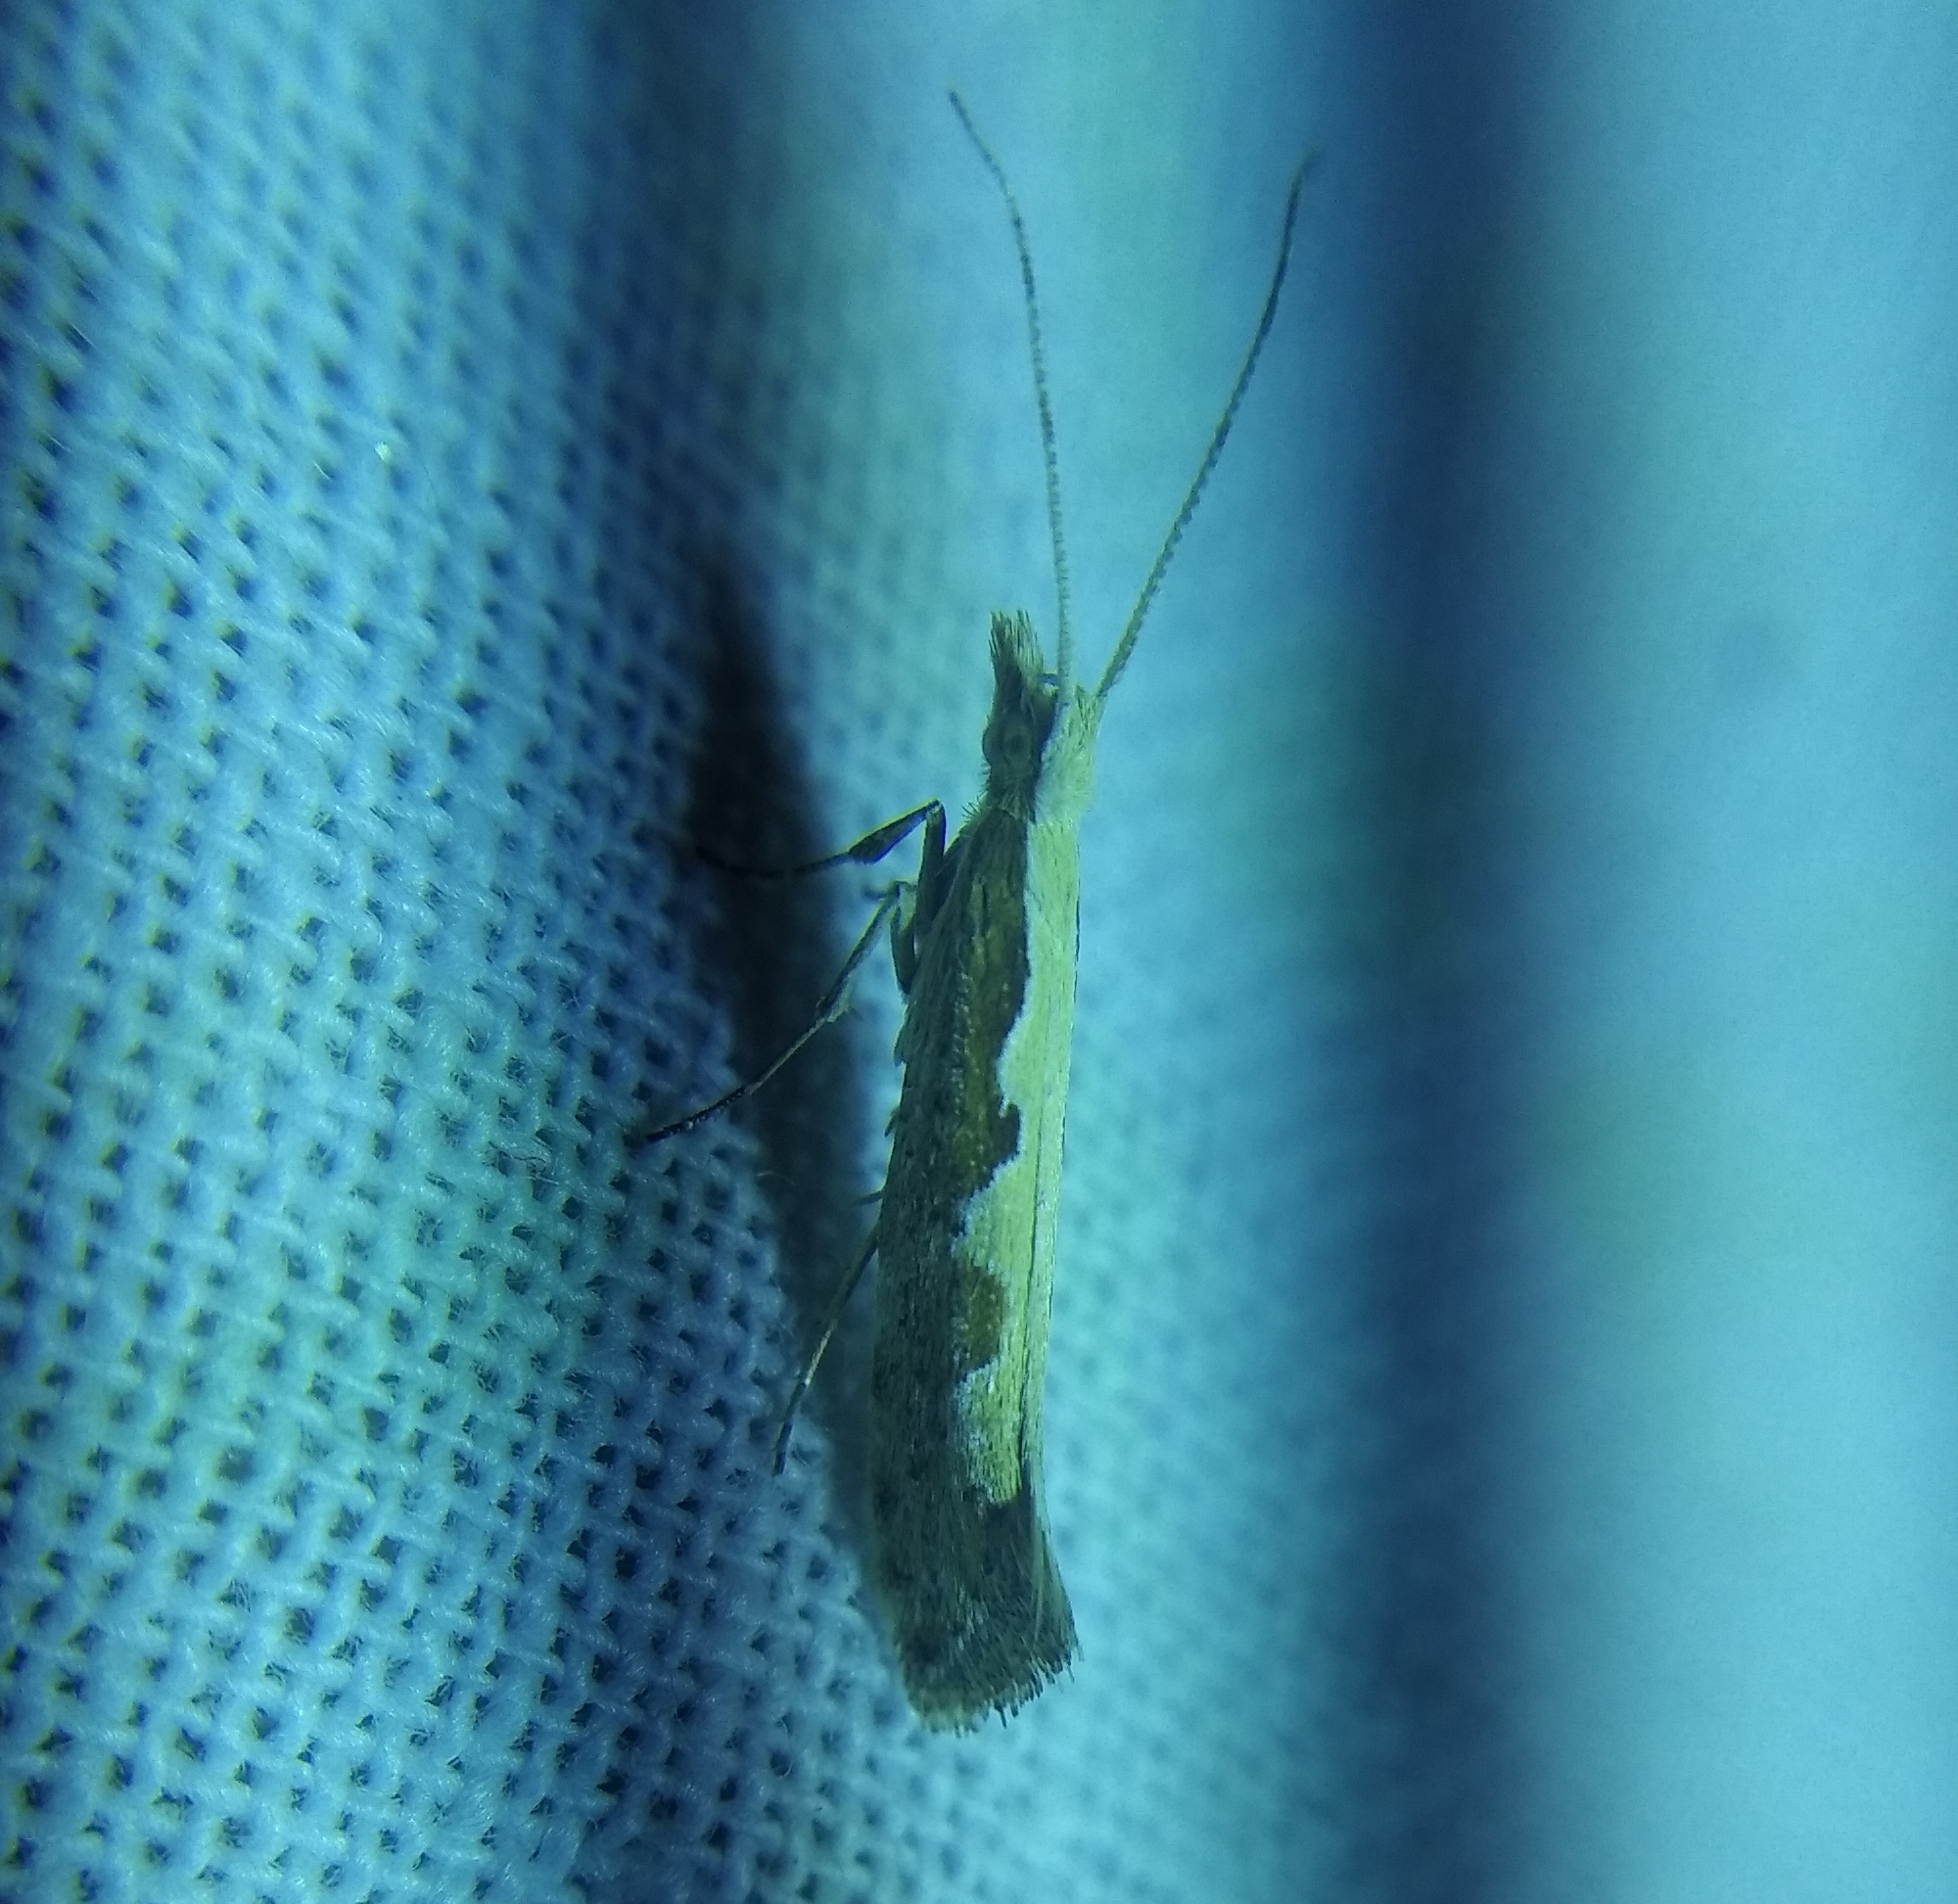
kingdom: Animalia
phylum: Arthropoda
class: Insecta
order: Lepidoptera
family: Plutellidae
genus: Plutella
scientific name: Plutella xylostella
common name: Diamond-back moth
